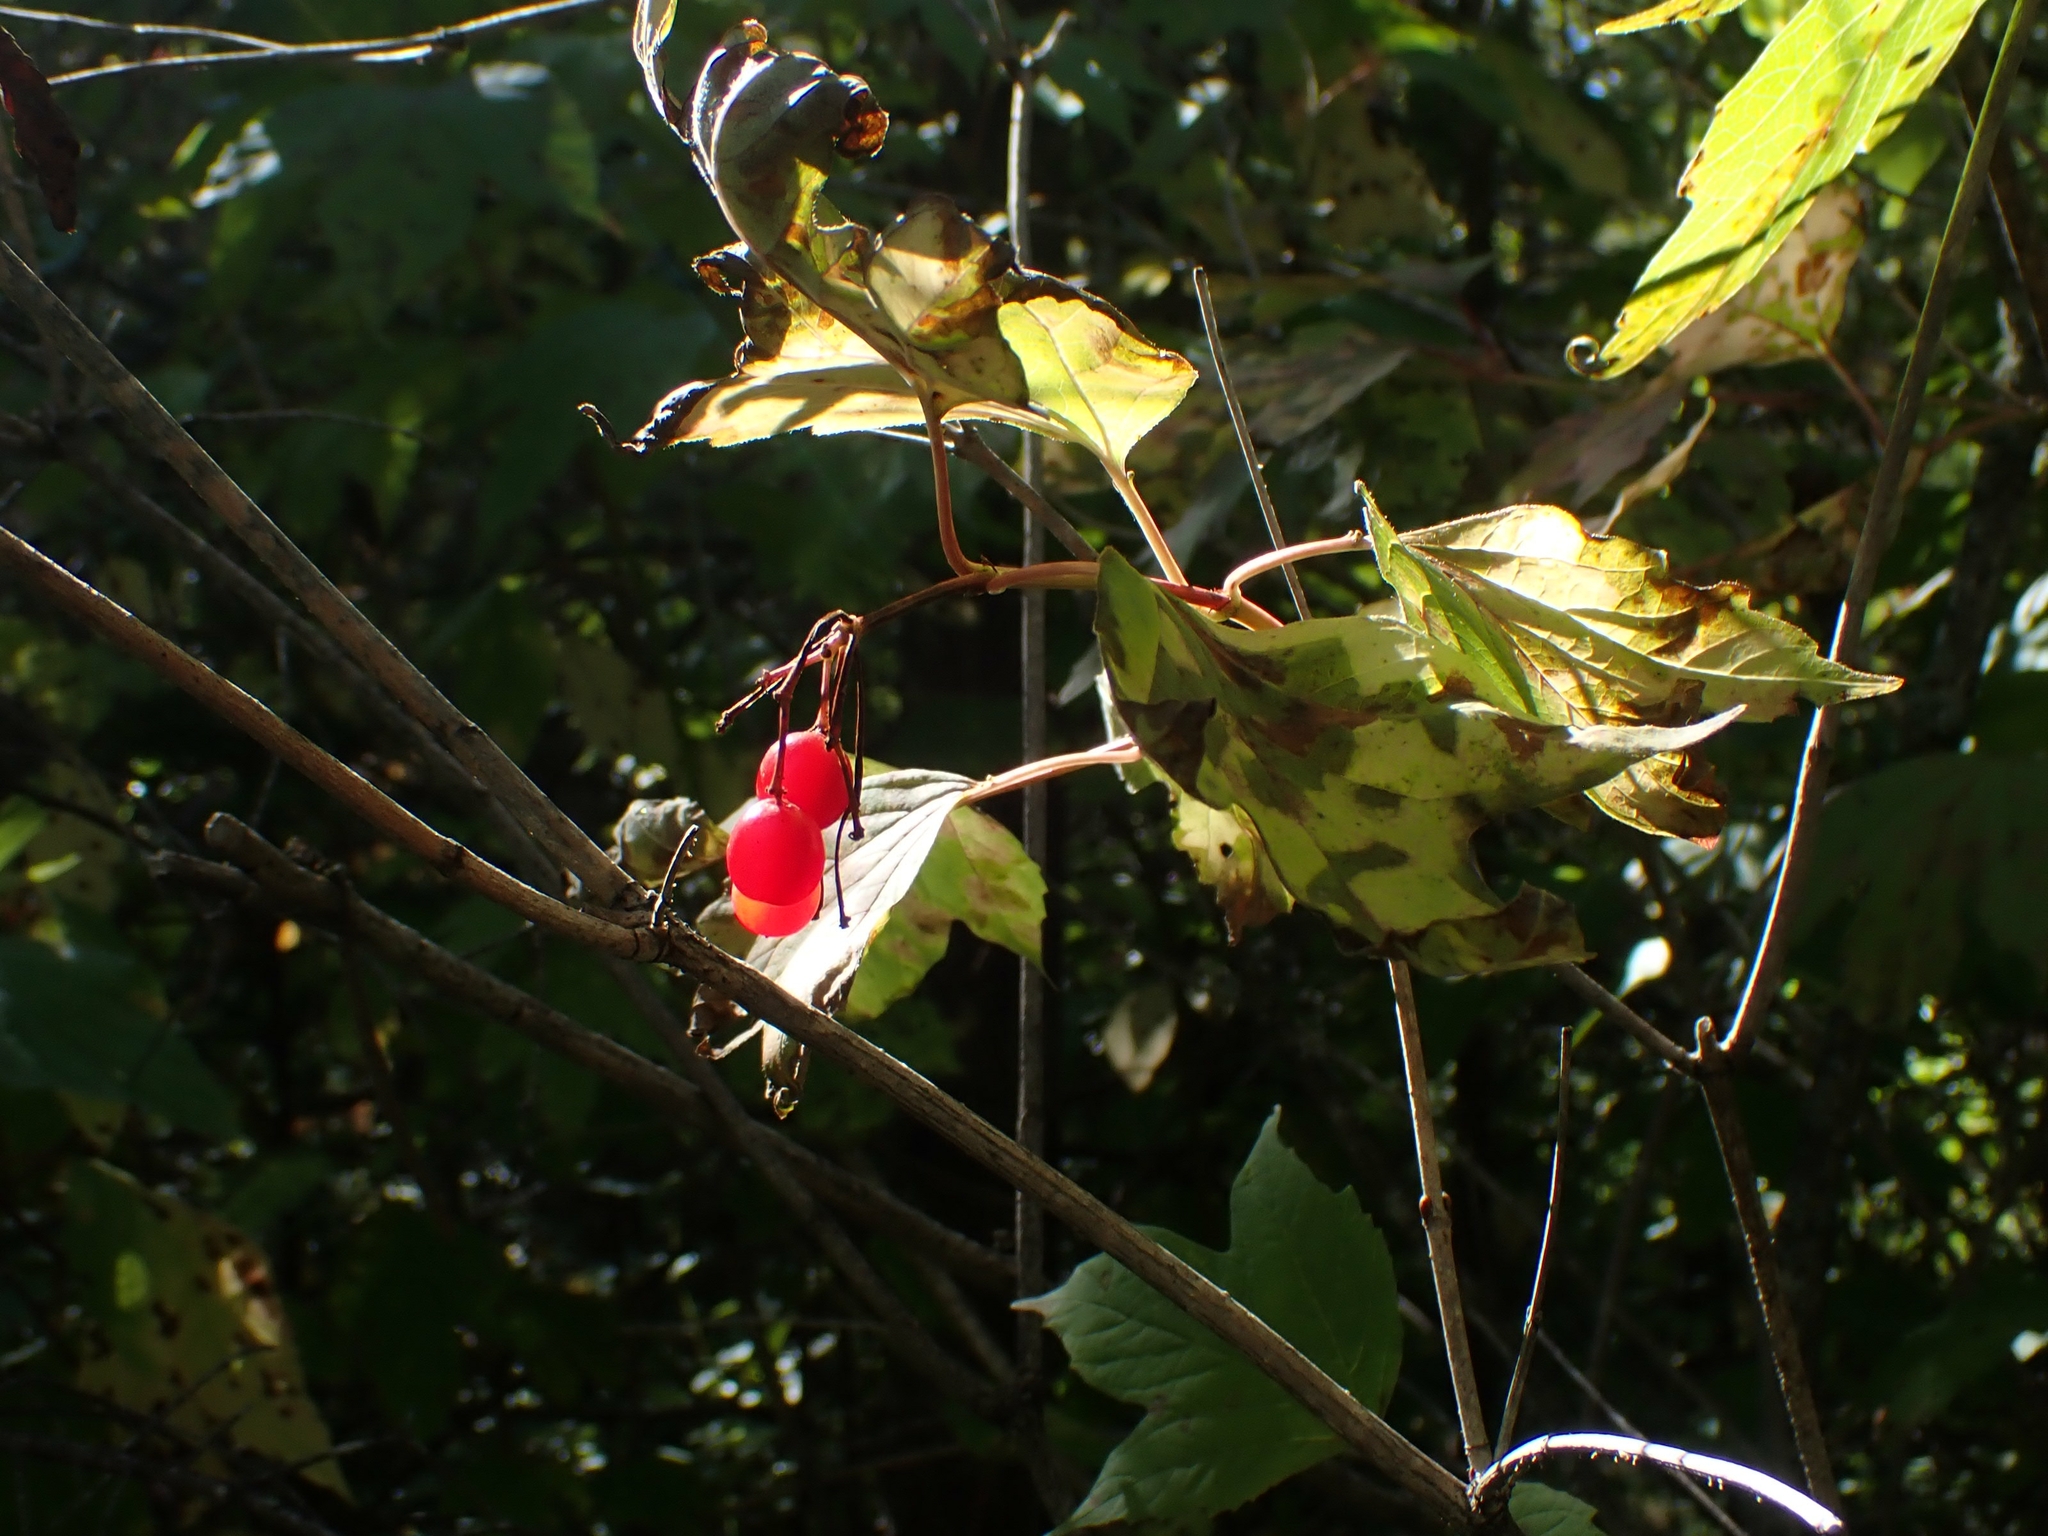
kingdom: Plantae
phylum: Tracheophyta
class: Magnoliopsida
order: Dipsacales
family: Viburnaceae
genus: Viburnum
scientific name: Viburnum trilobum
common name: American cranberrybush
